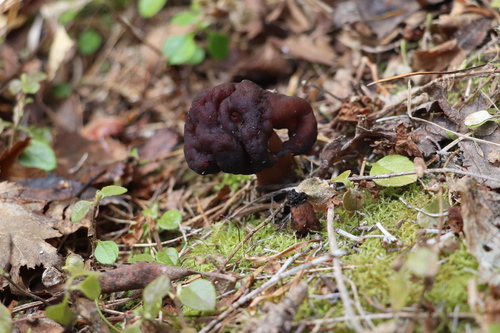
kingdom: Fungi
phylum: Ascomycota
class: Pezizomycetes
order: Pezizales
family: Discinaceae
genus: Gyromitra
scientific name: Gyromitra esculenta
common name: False morel
